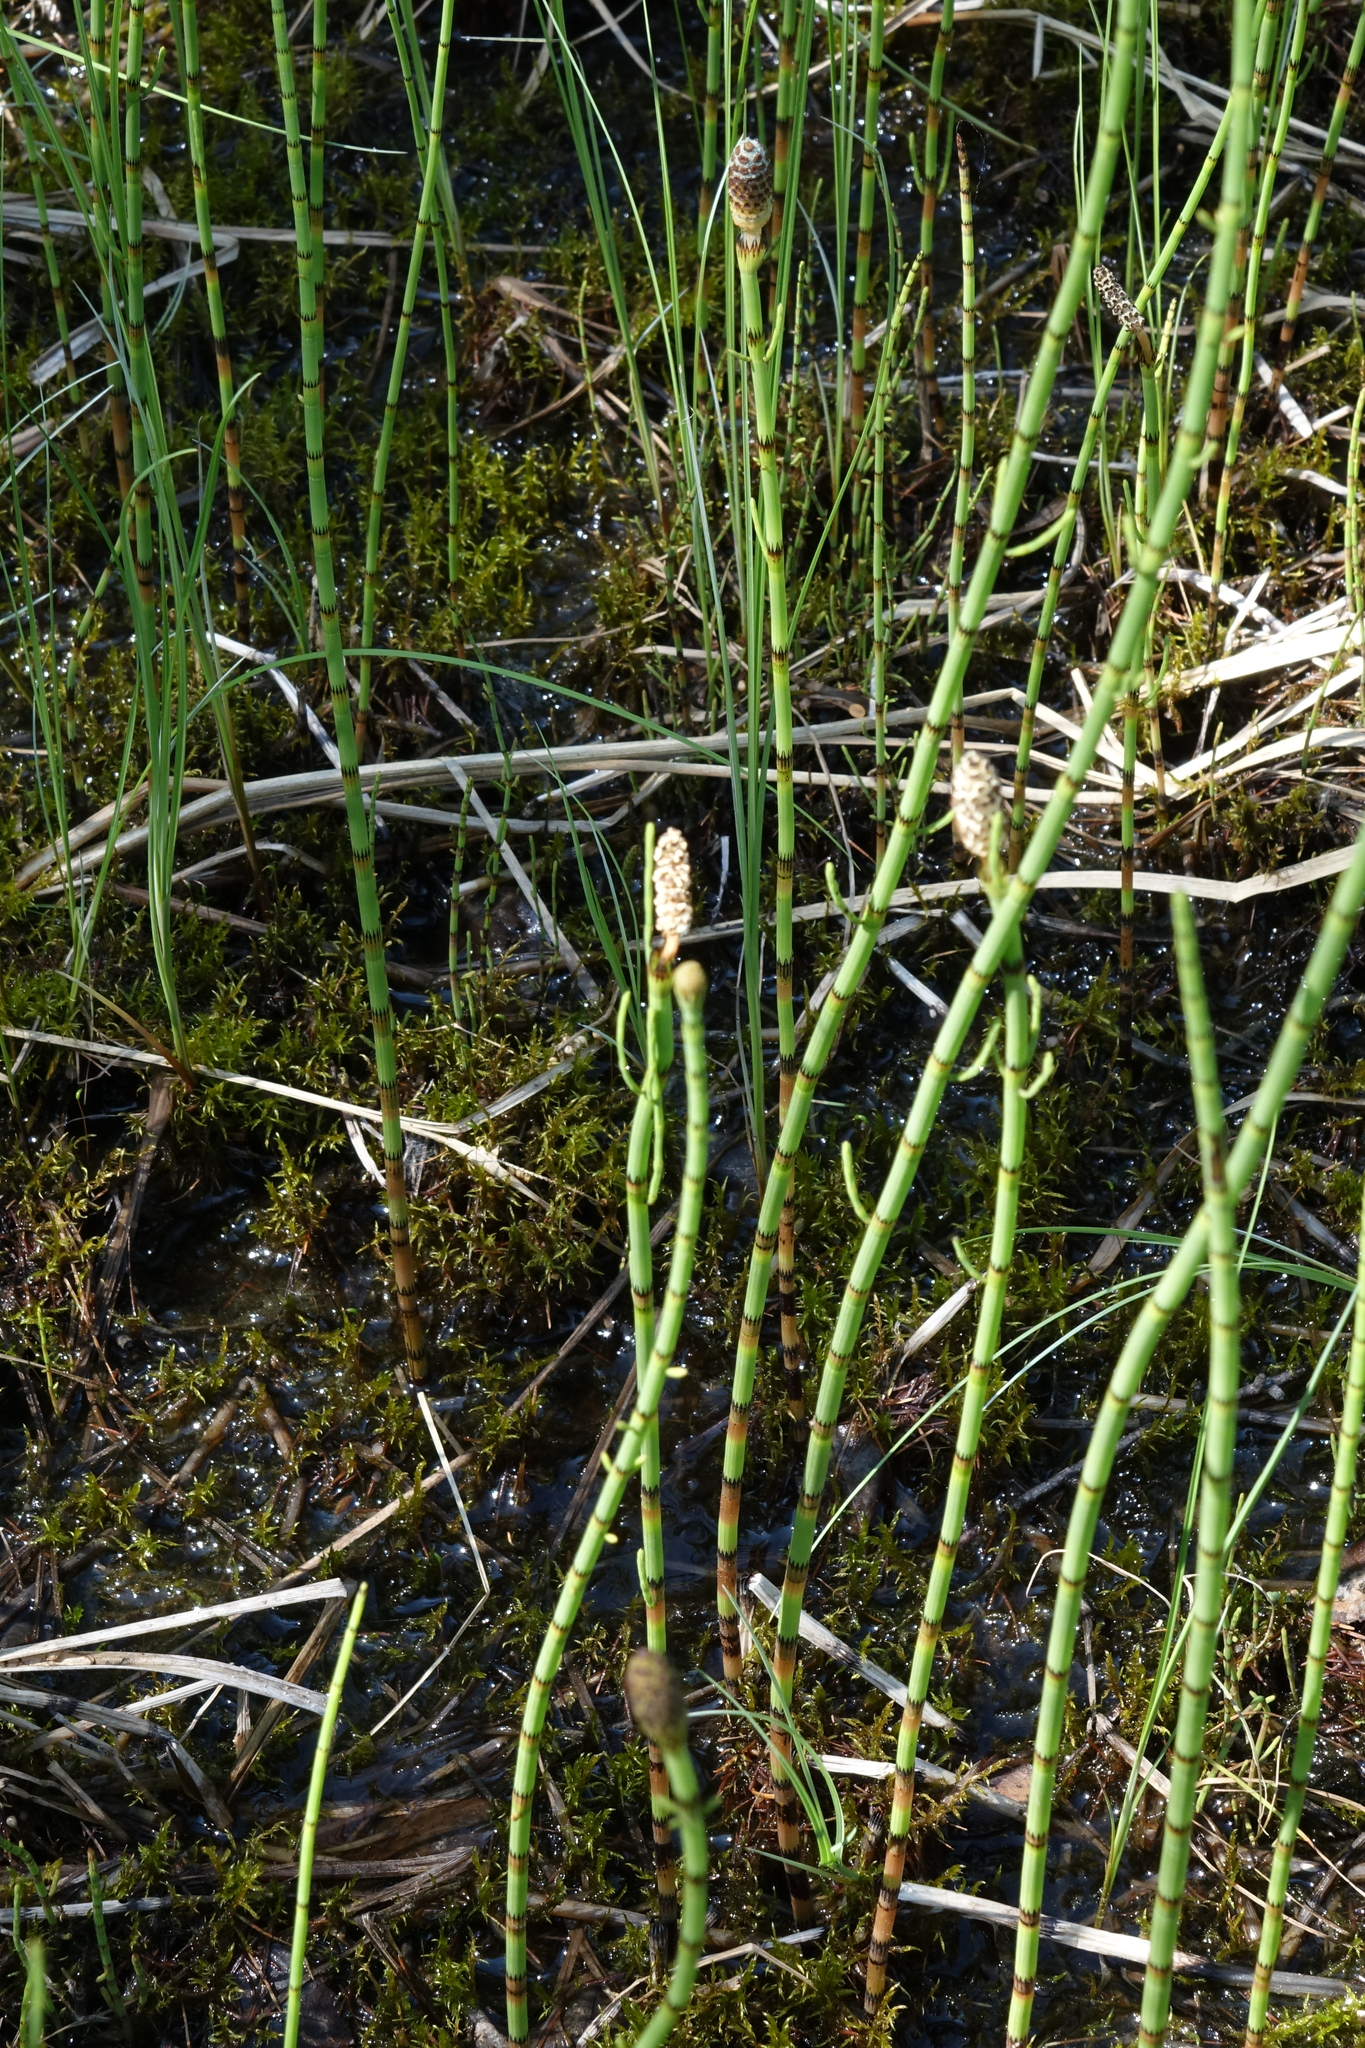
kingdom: Plantae
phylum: Tracheophyta
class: Polypodiopsida
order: Equisetales
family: Equisetaceae
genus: Equisetum
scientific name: Equisetum fluviatile
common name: Water horsetail
